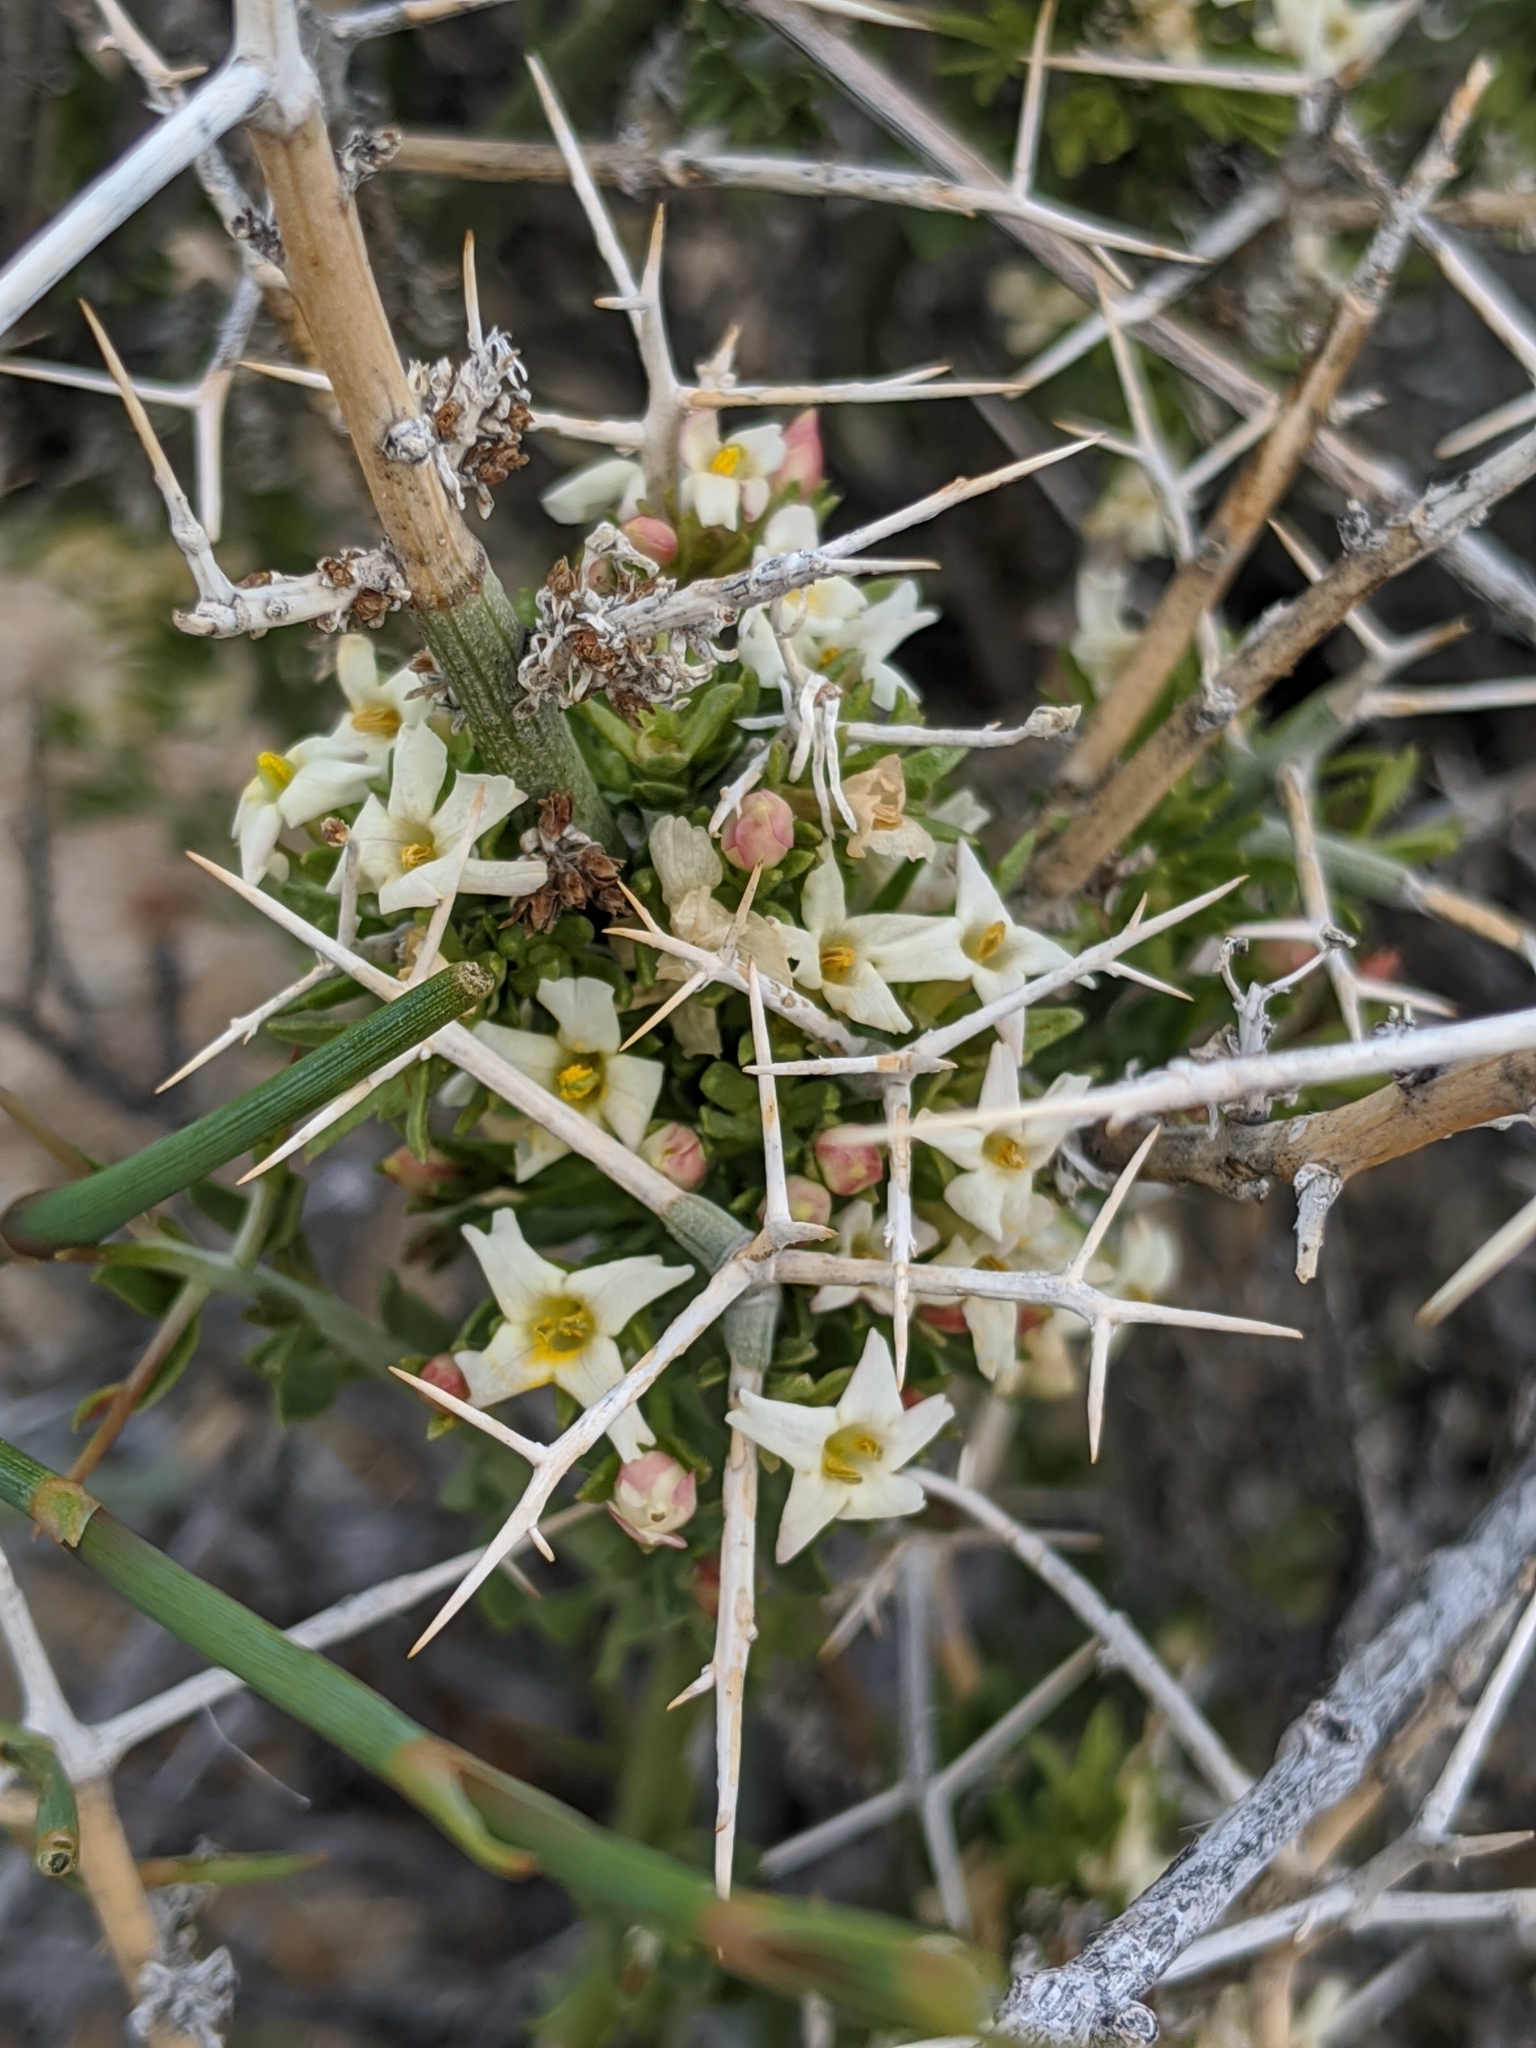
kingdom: Plantae
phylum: Tracheophyta
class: Magnoliopsida
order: Lamiales
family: Oleaceae
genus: Menodora
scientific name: Menodora spinescens
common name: Spiny menodora
